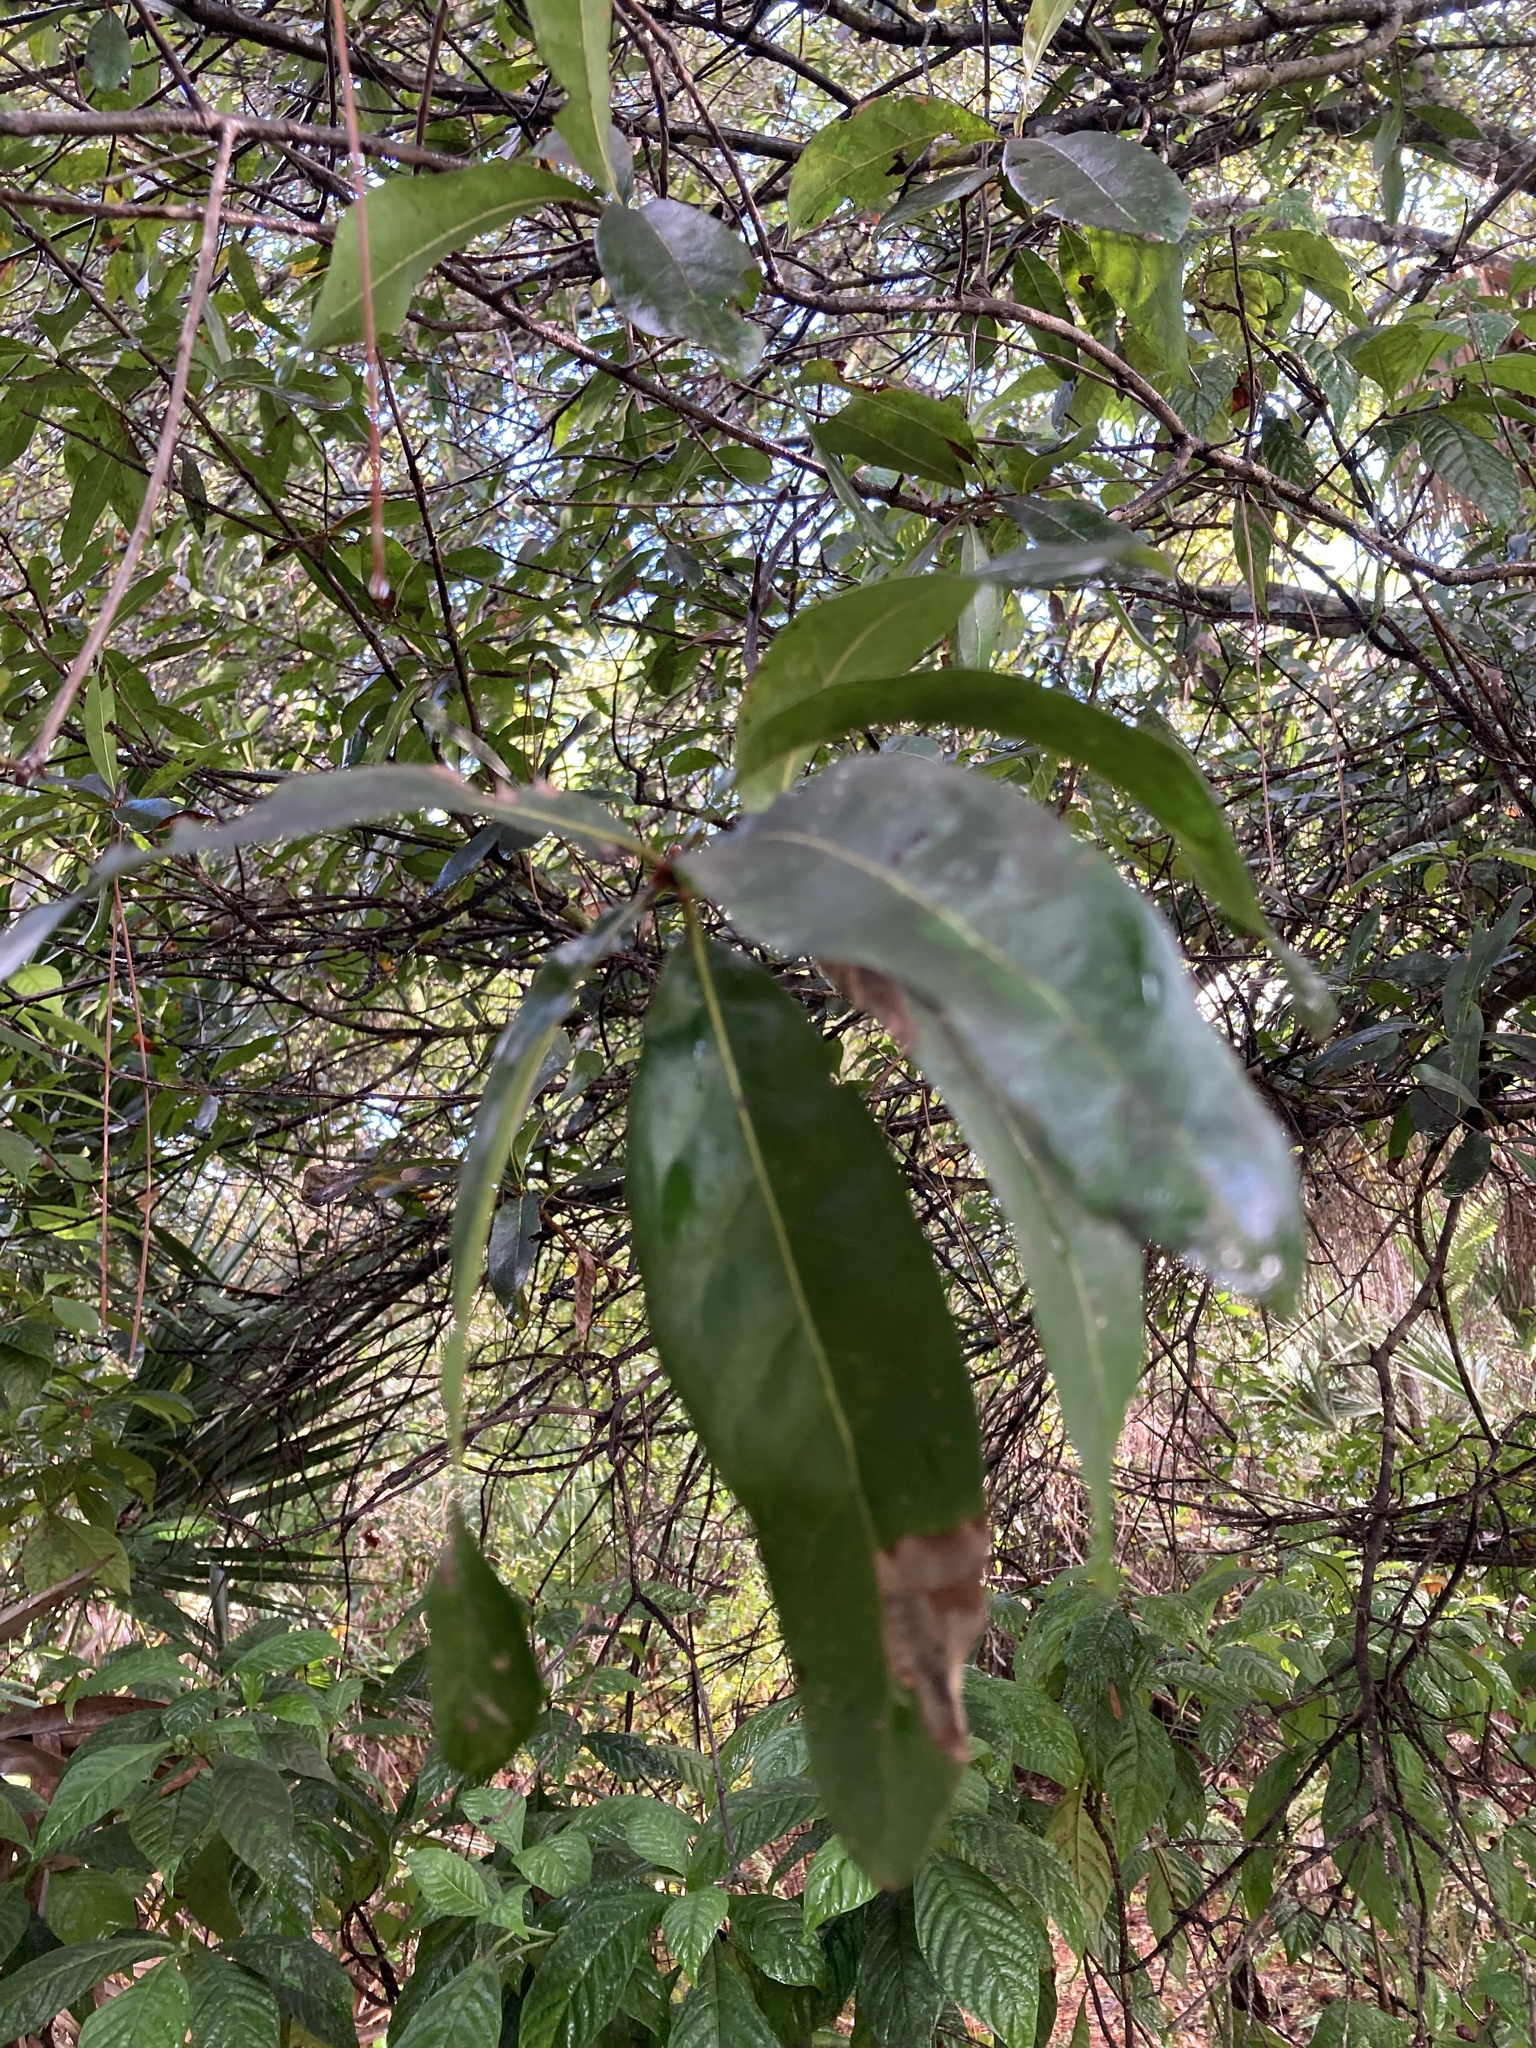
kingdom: Plantae
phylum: Tracheophyta
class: Magnoliopsida
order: Fagales
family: Fagaceae
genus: Quercus
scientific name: Quercus laurifolia
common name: Swamp laurel oak
